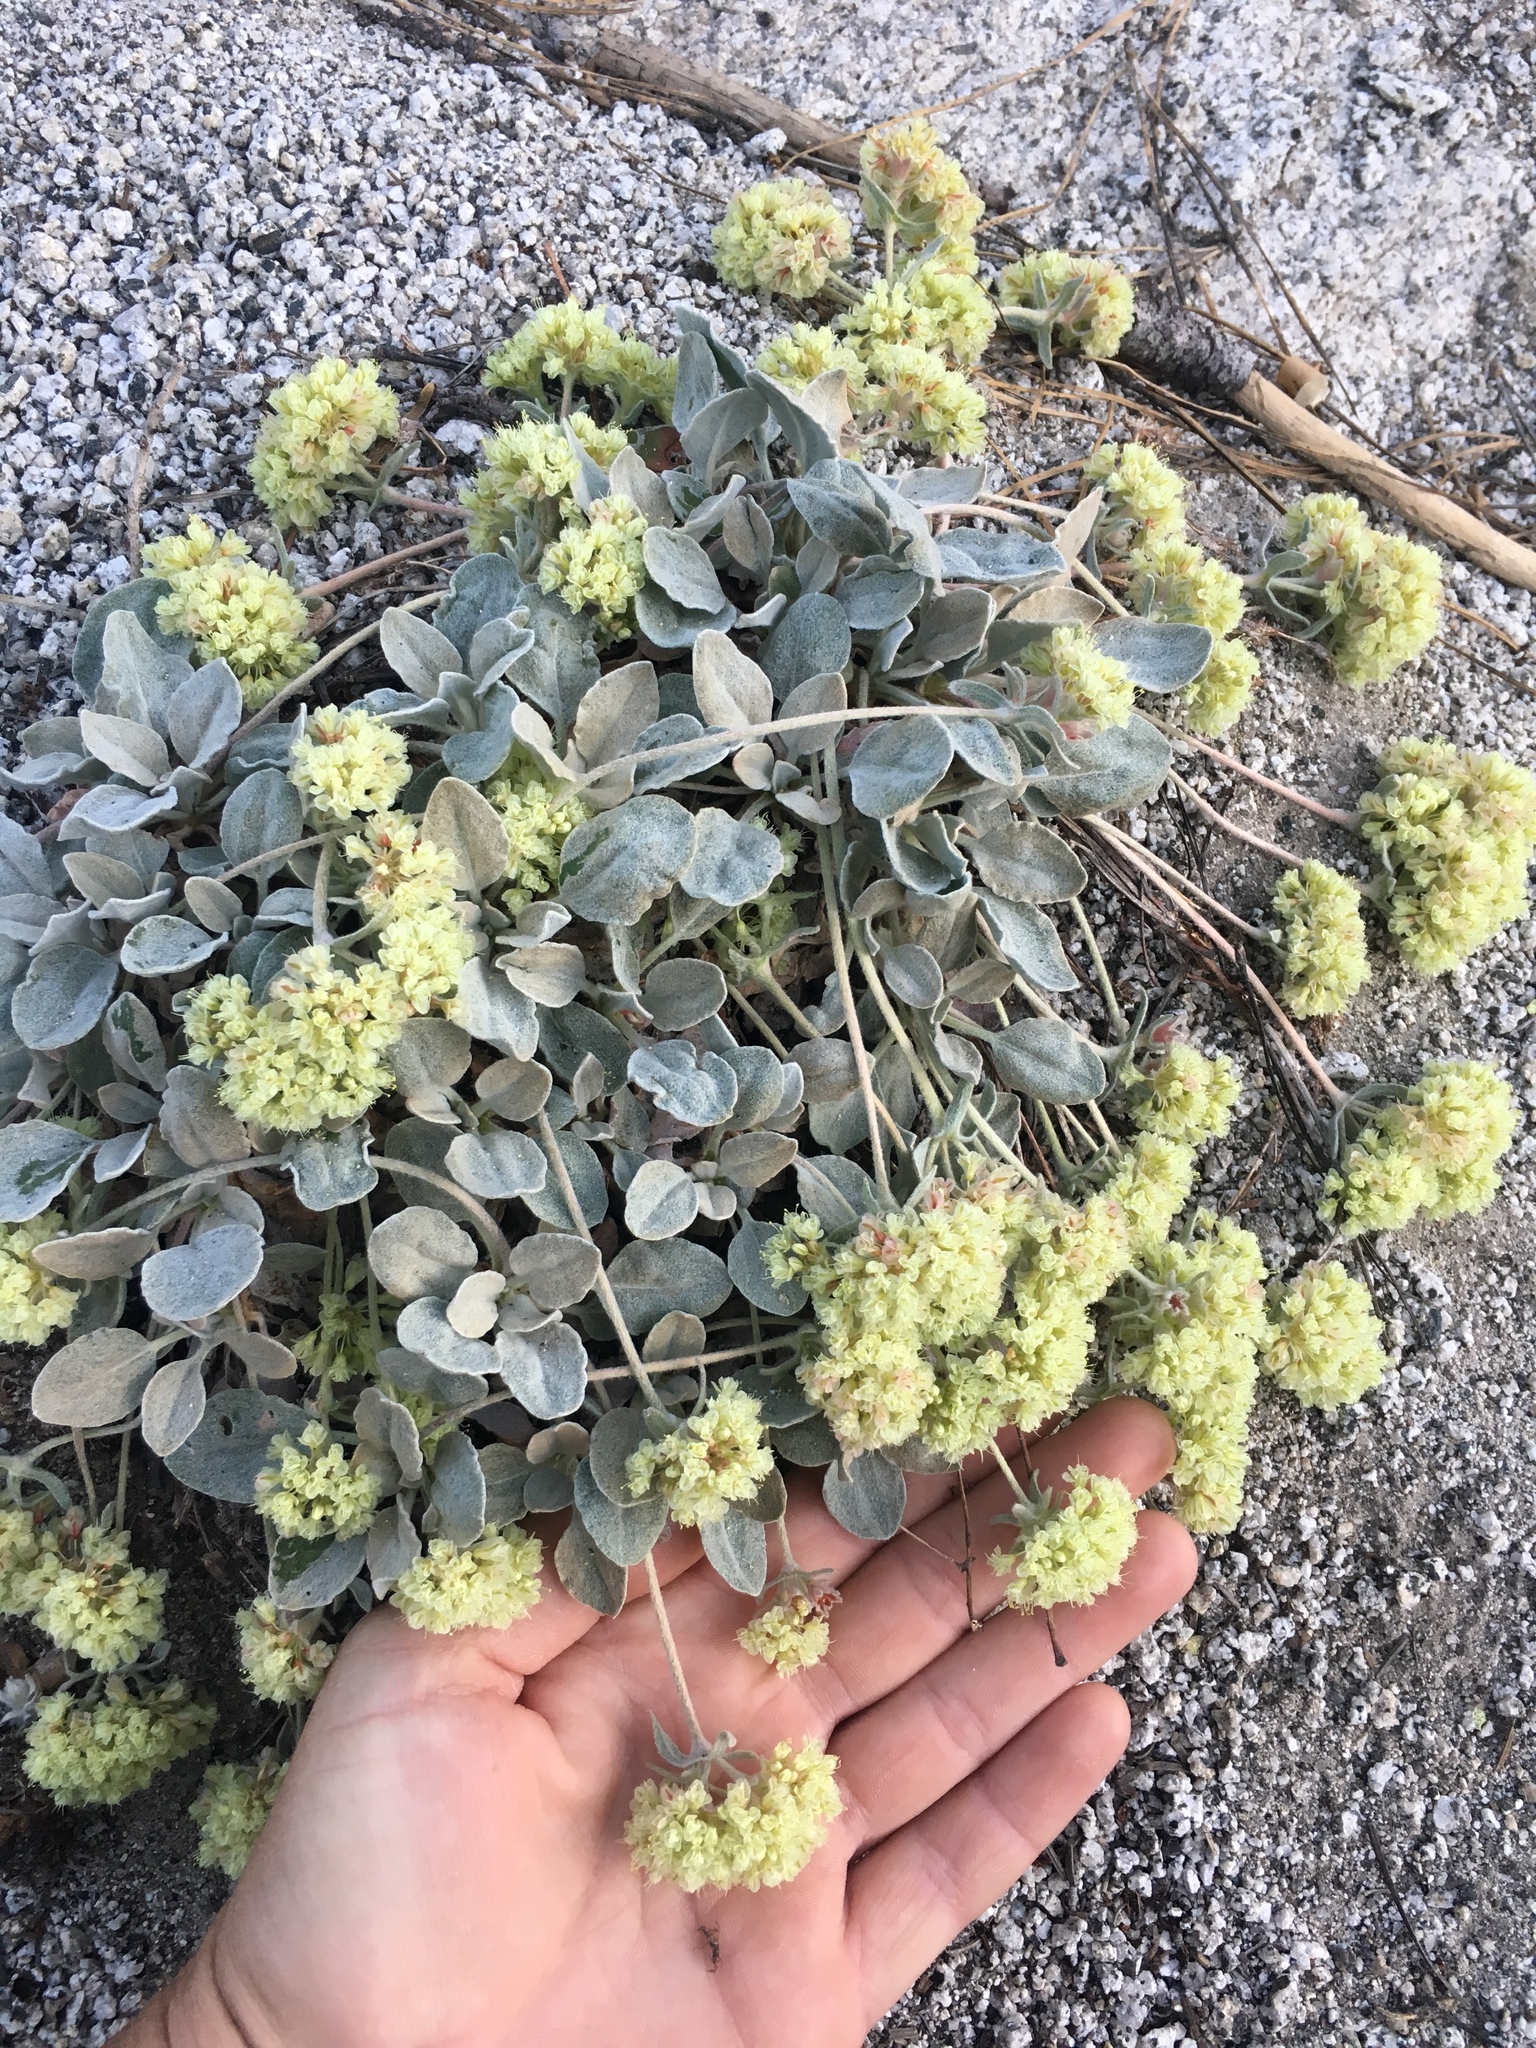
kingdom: Plantae
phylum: Tracheophyta
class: Magnoliopsida
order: Caryophyllales
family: Polygonaceae
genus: Eriogonum
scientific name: Eriogonum lobbii
